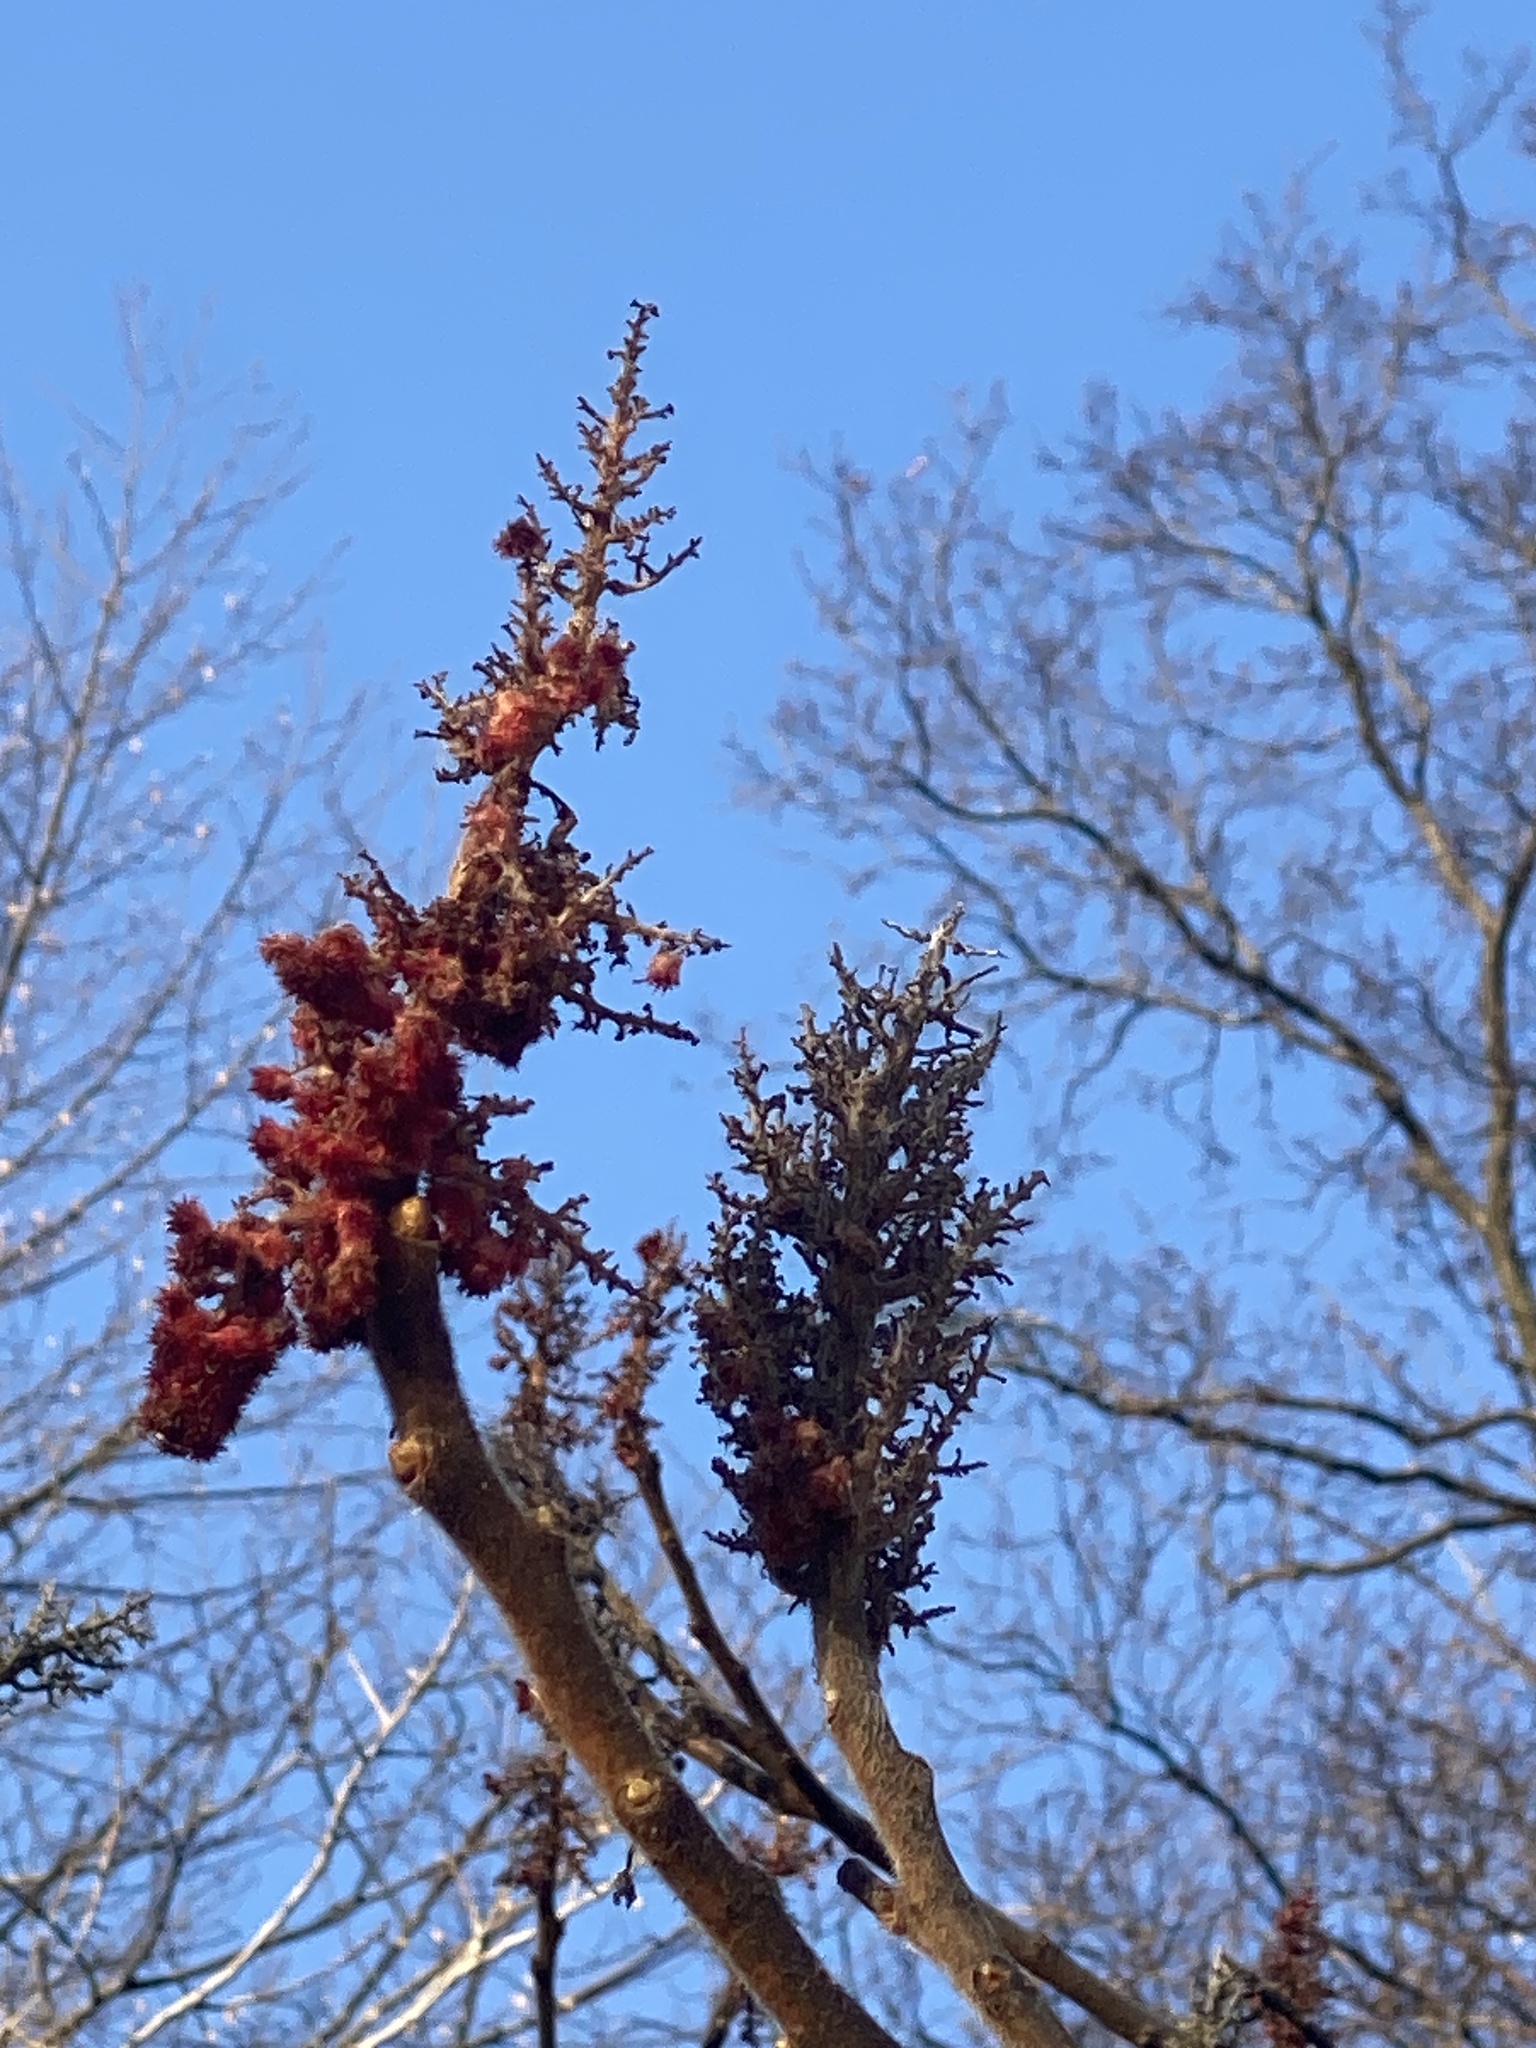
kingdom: Plantae
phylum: Tracheophyta
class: Magnoliopsida
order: Sapindales
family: Anacardiaceae
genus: Rhus
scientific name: Rhus typhina
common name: Staghorn sumac
